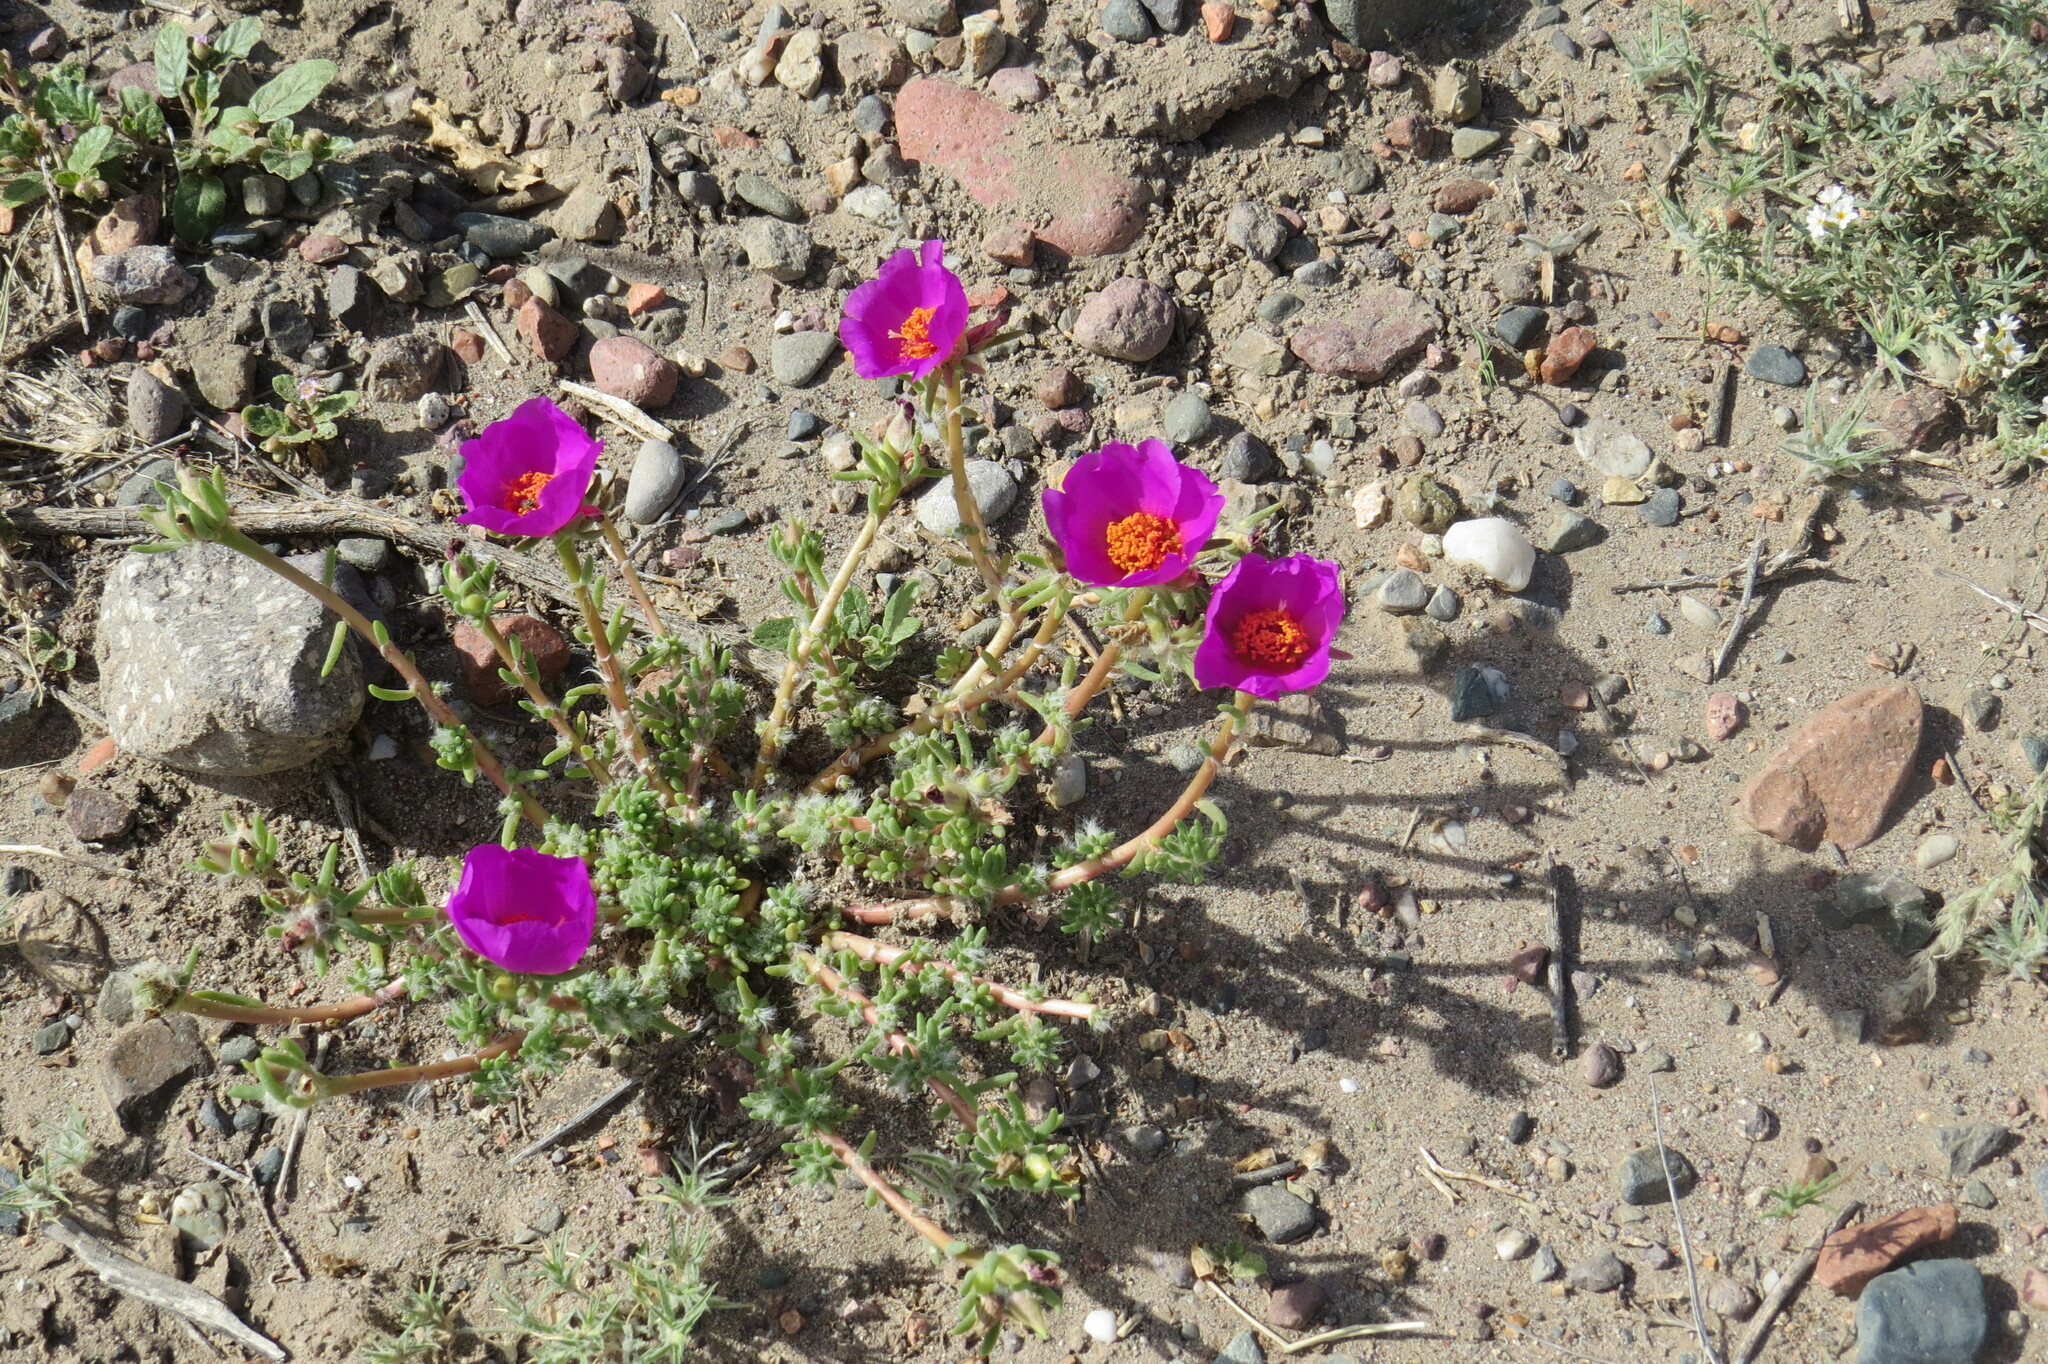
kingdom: Plantae
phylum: Tracheophyta
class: Magnoliopsida
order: Caryophyllales
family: Portulacaceae
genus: Portulaca
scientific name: Portulaca grandiflora
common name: Moss-rose
